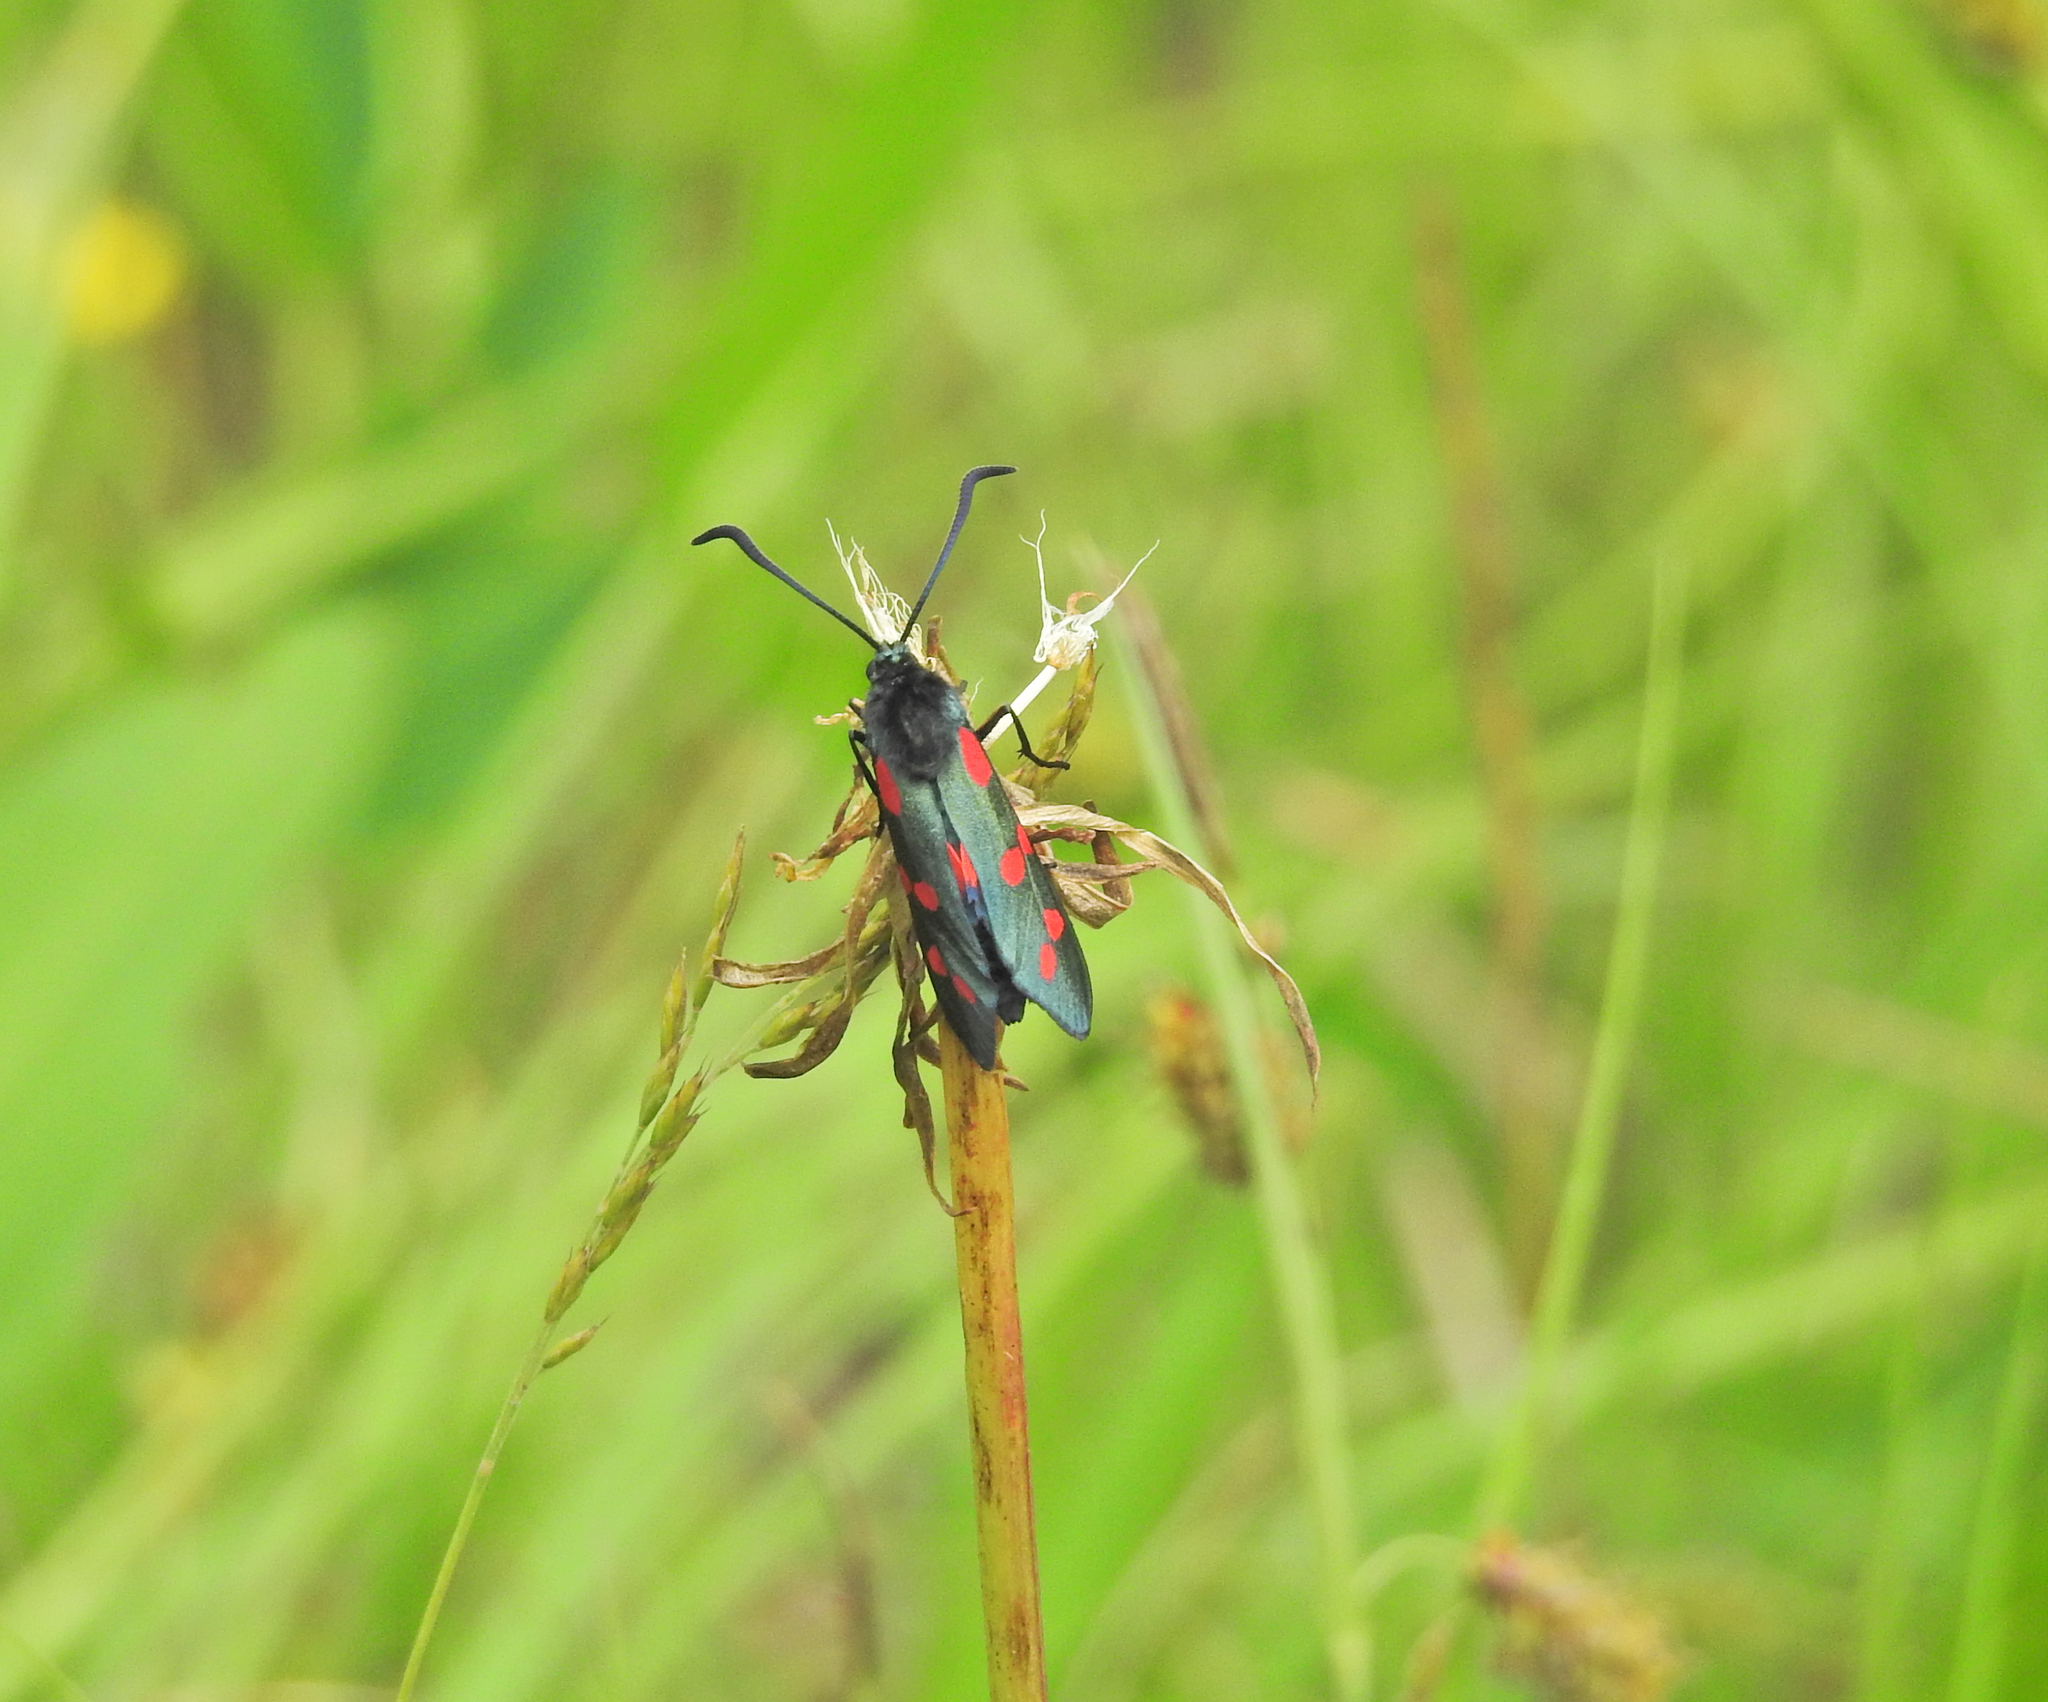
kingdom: Animalia
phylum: Arthropoda
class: Insecta
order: Lepidoptera
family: Zygaenidae
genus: Zygaena
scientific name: Zygaena filipendulae
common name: Six-spot burnet
